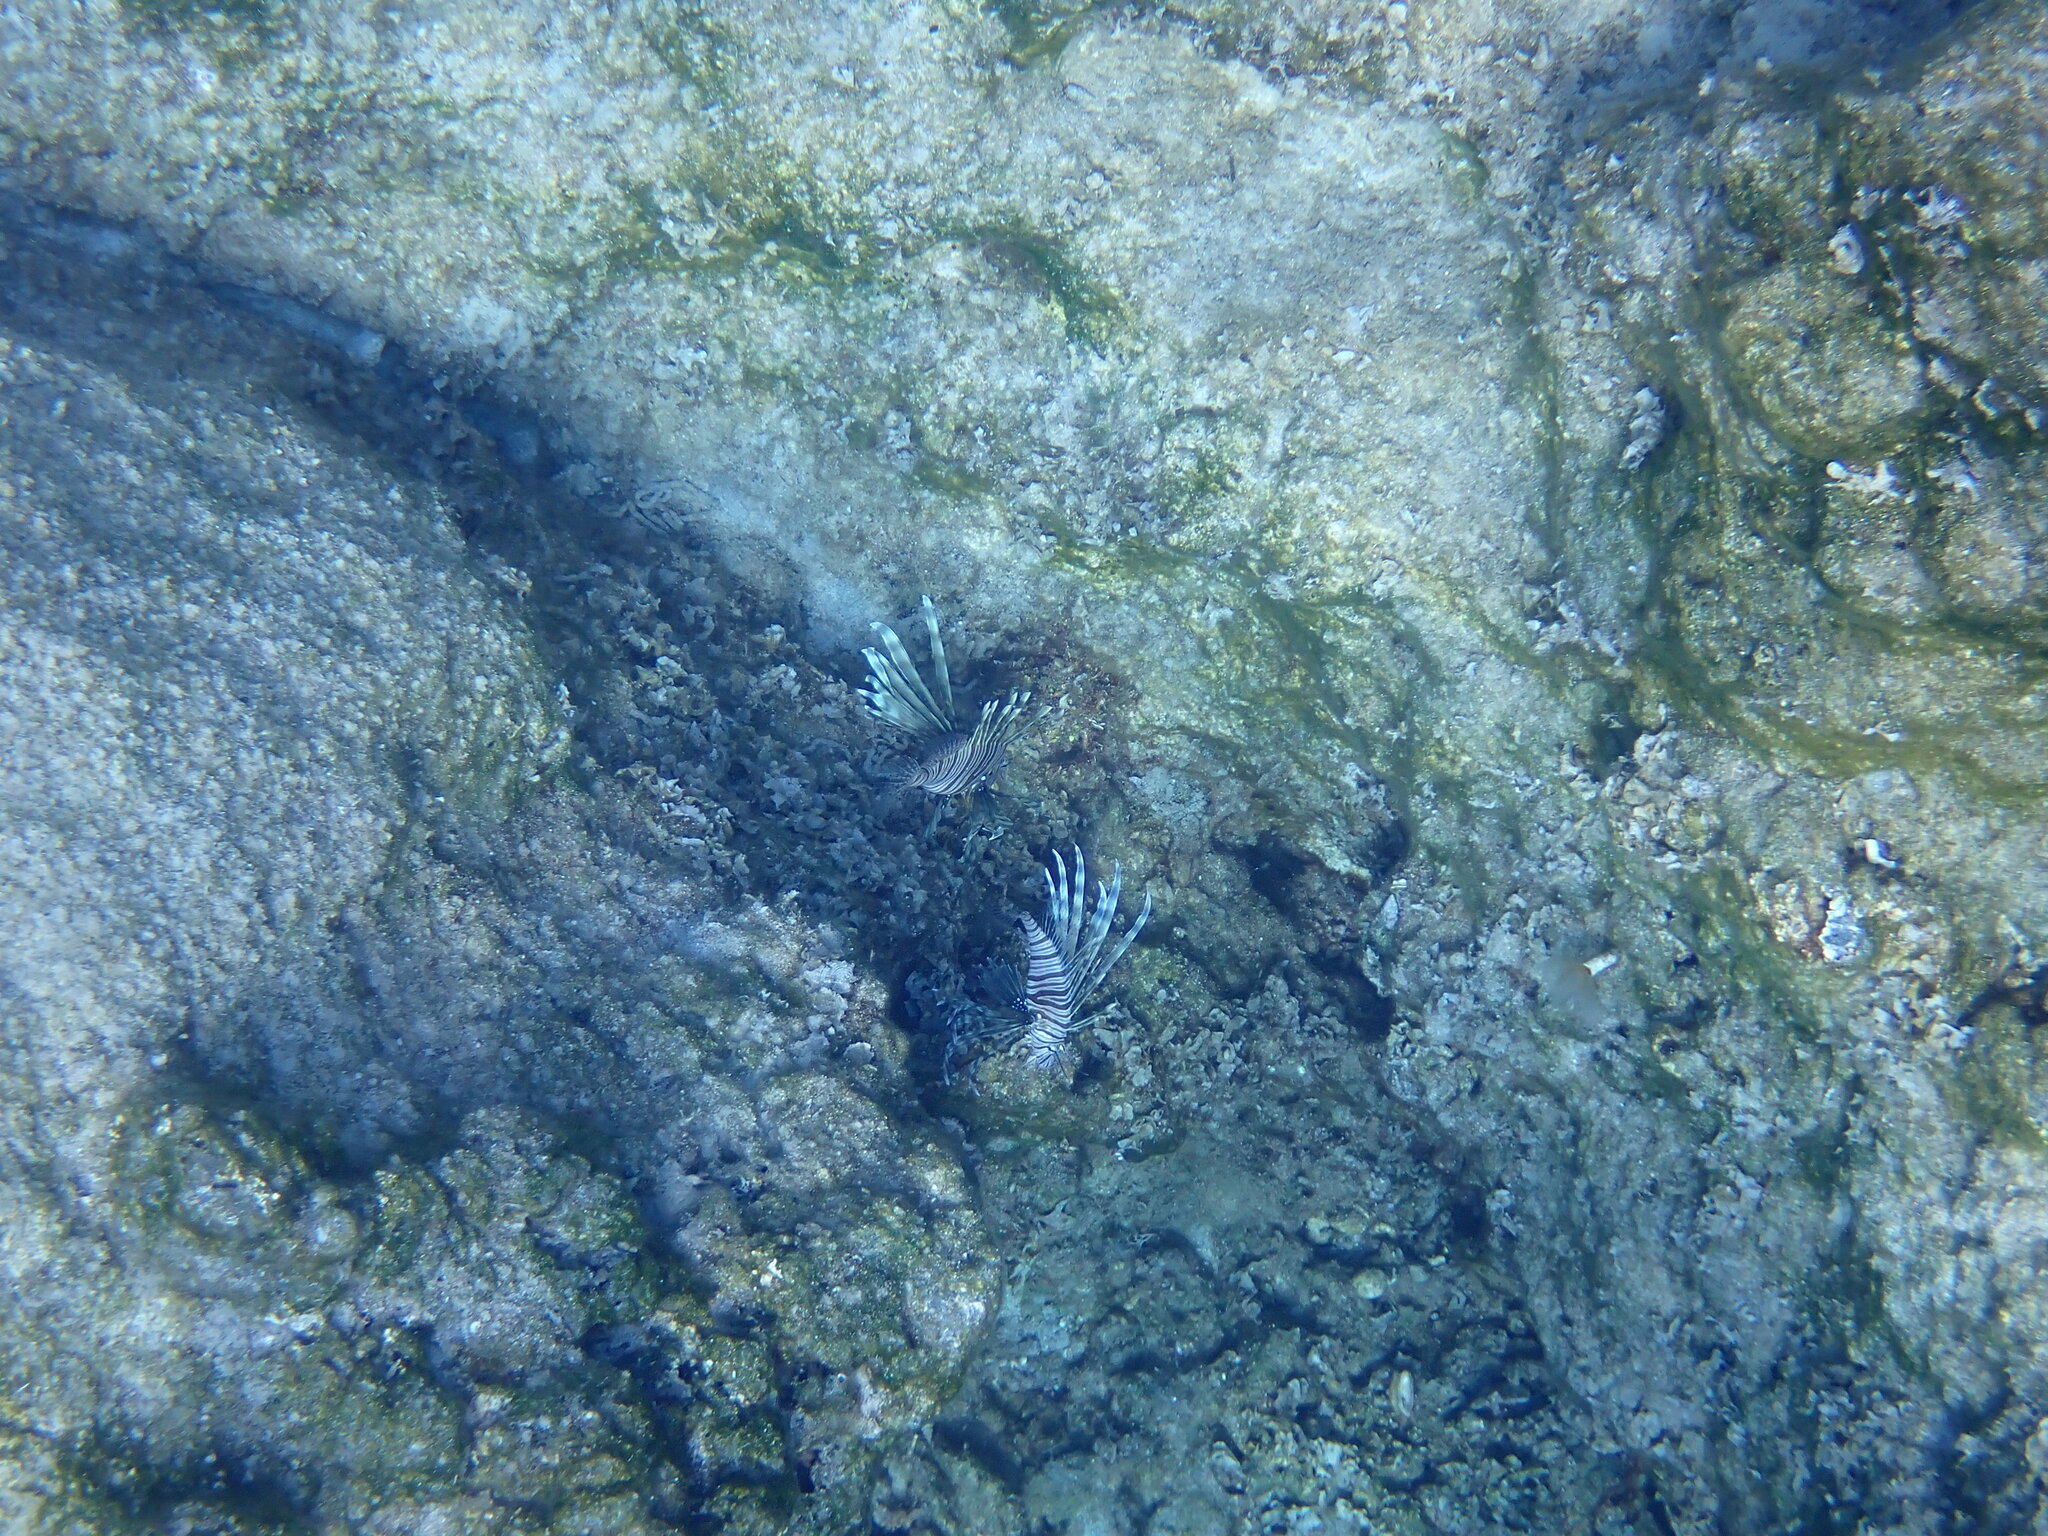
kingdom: Animalia
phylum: Chordata
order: Scorpaeniformes
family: Scorpaenidae
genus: Pterois
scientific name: Pterois miles
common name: Devil firefish
